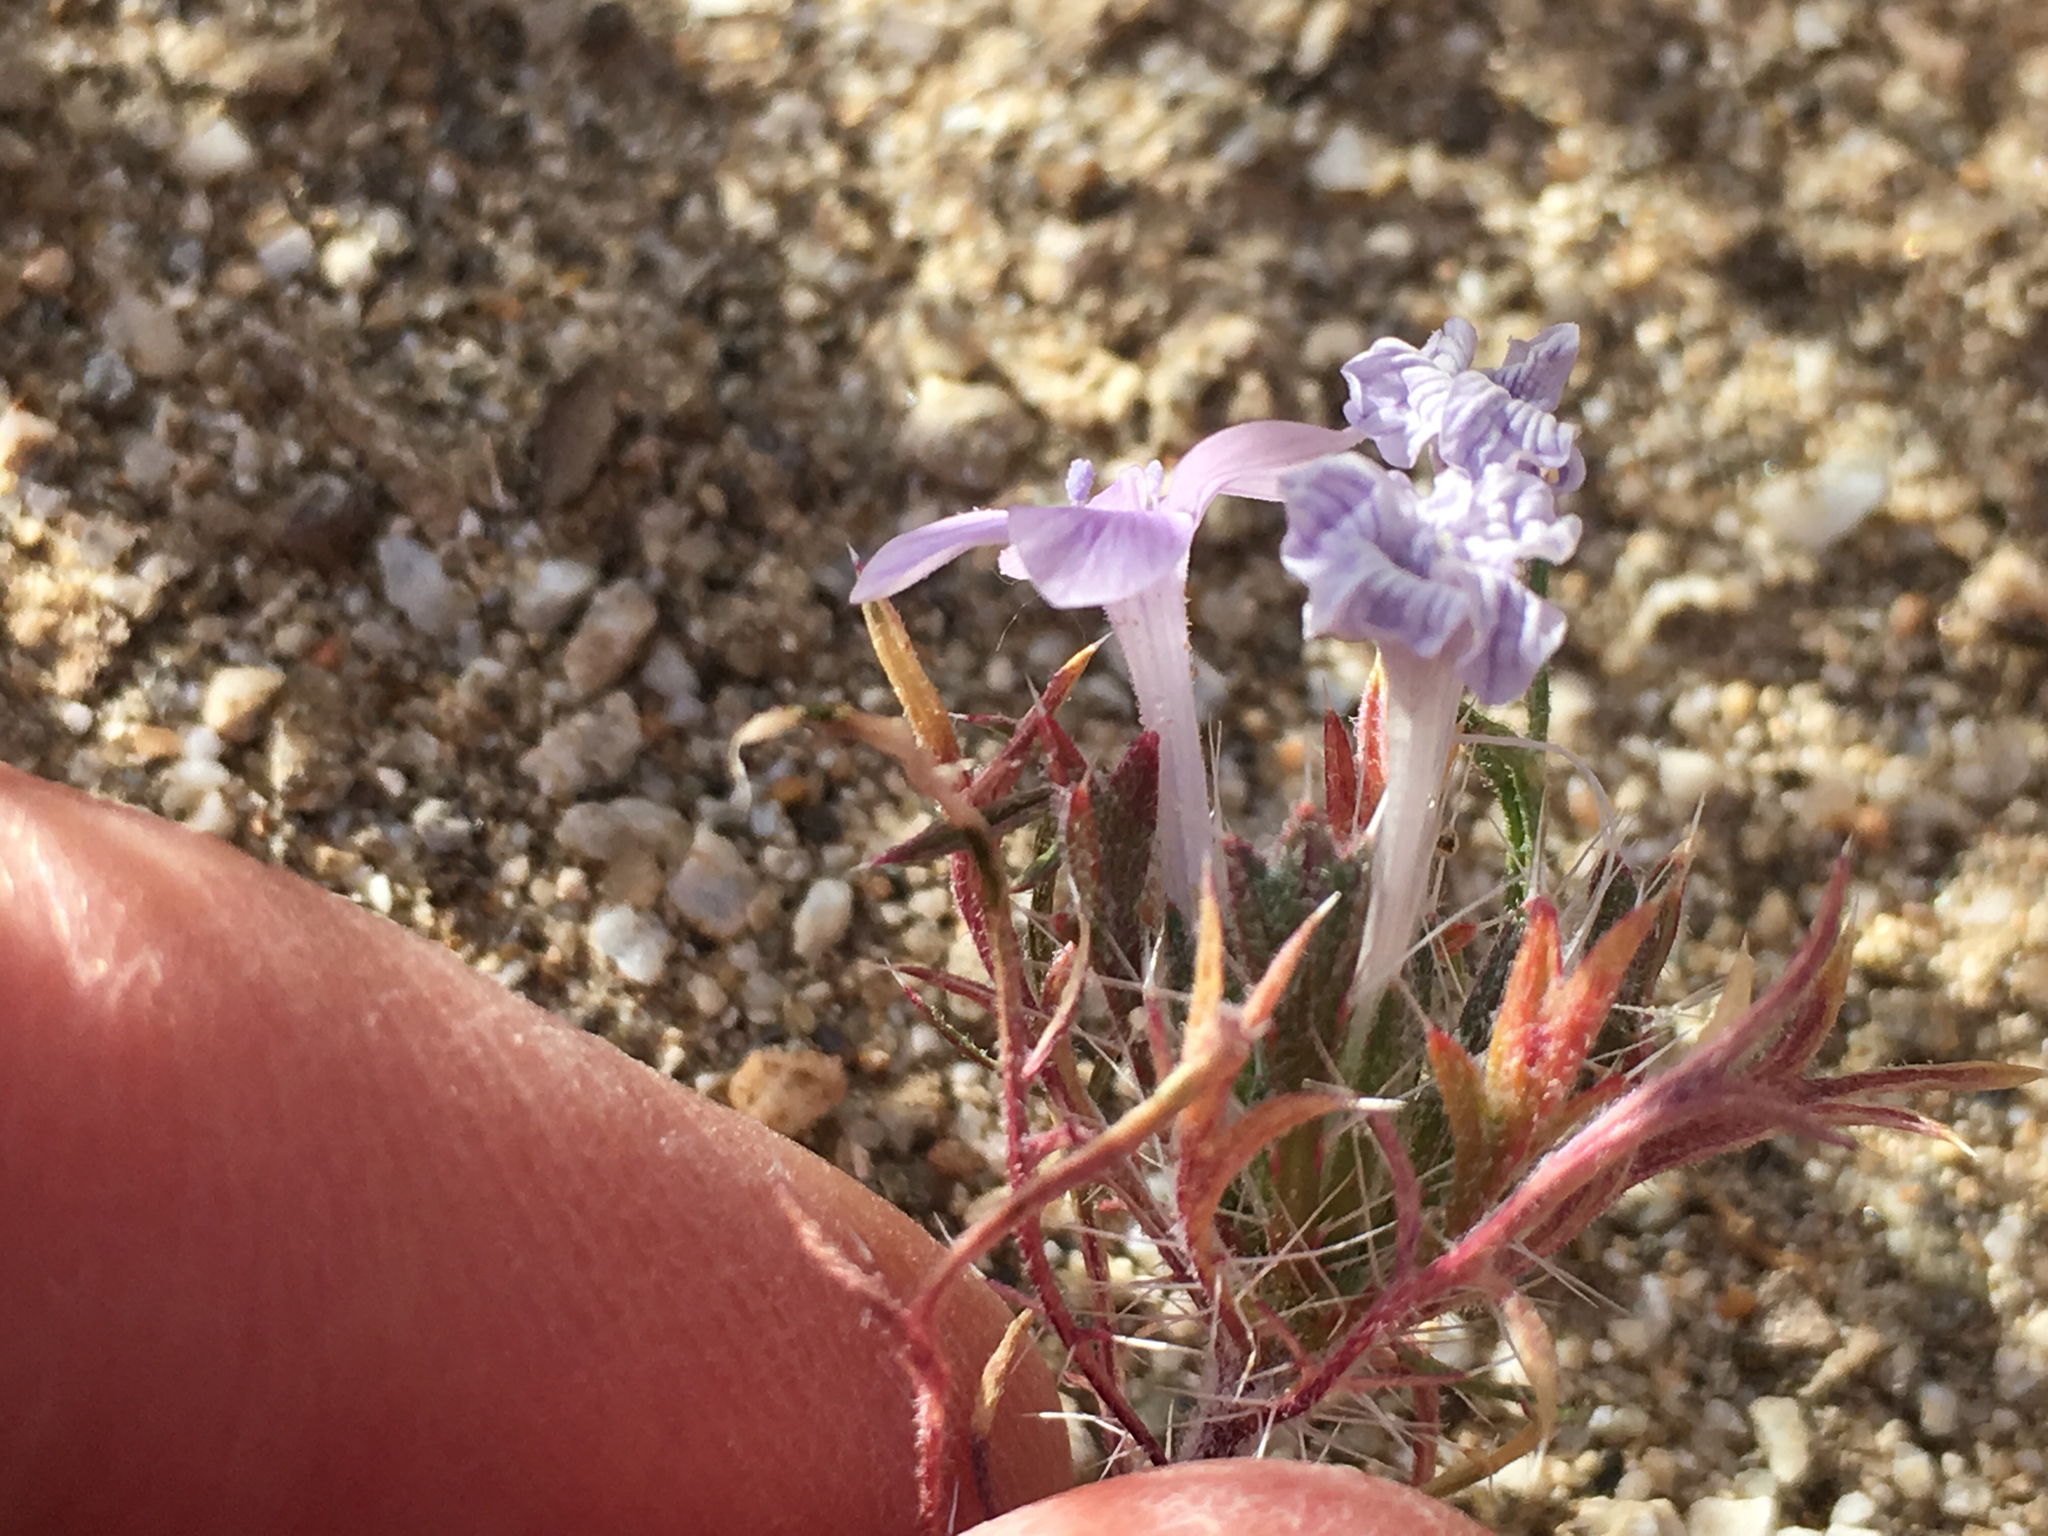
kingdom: Plantae
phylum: Tracheophyta
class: Magnoliopsida
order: Ericales
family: Polemoniaceae
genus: Langloisia
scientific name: Langloisia setosissima
